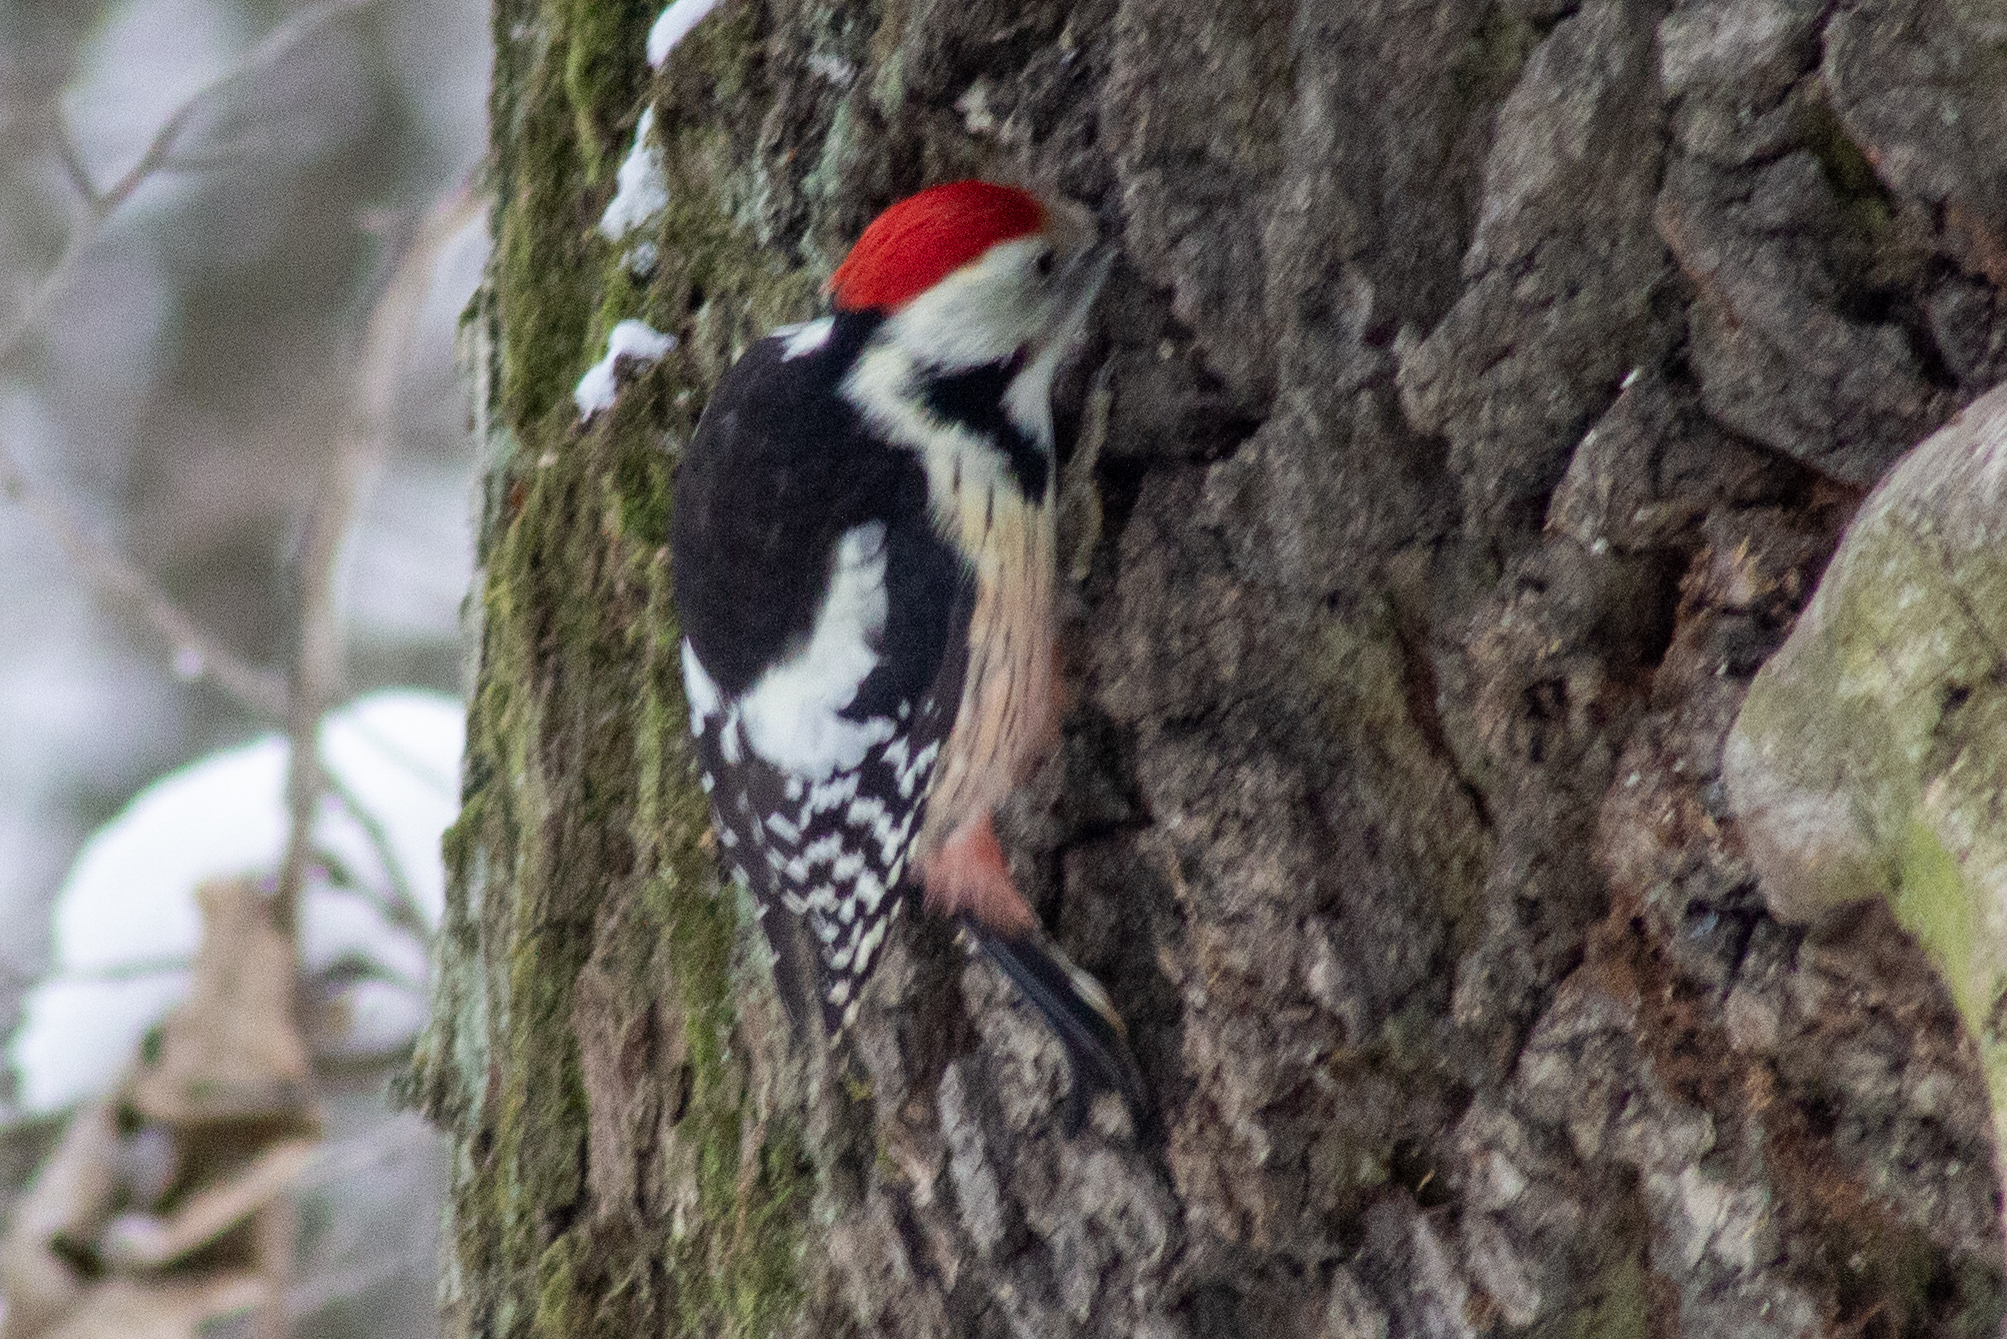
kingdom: Animalia
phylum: Chordata
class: Aves
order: Piciformes
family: Picidae
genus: Dendrocoptes
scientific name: Dendrocoptes medius
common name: Middle spotted woodpecker
